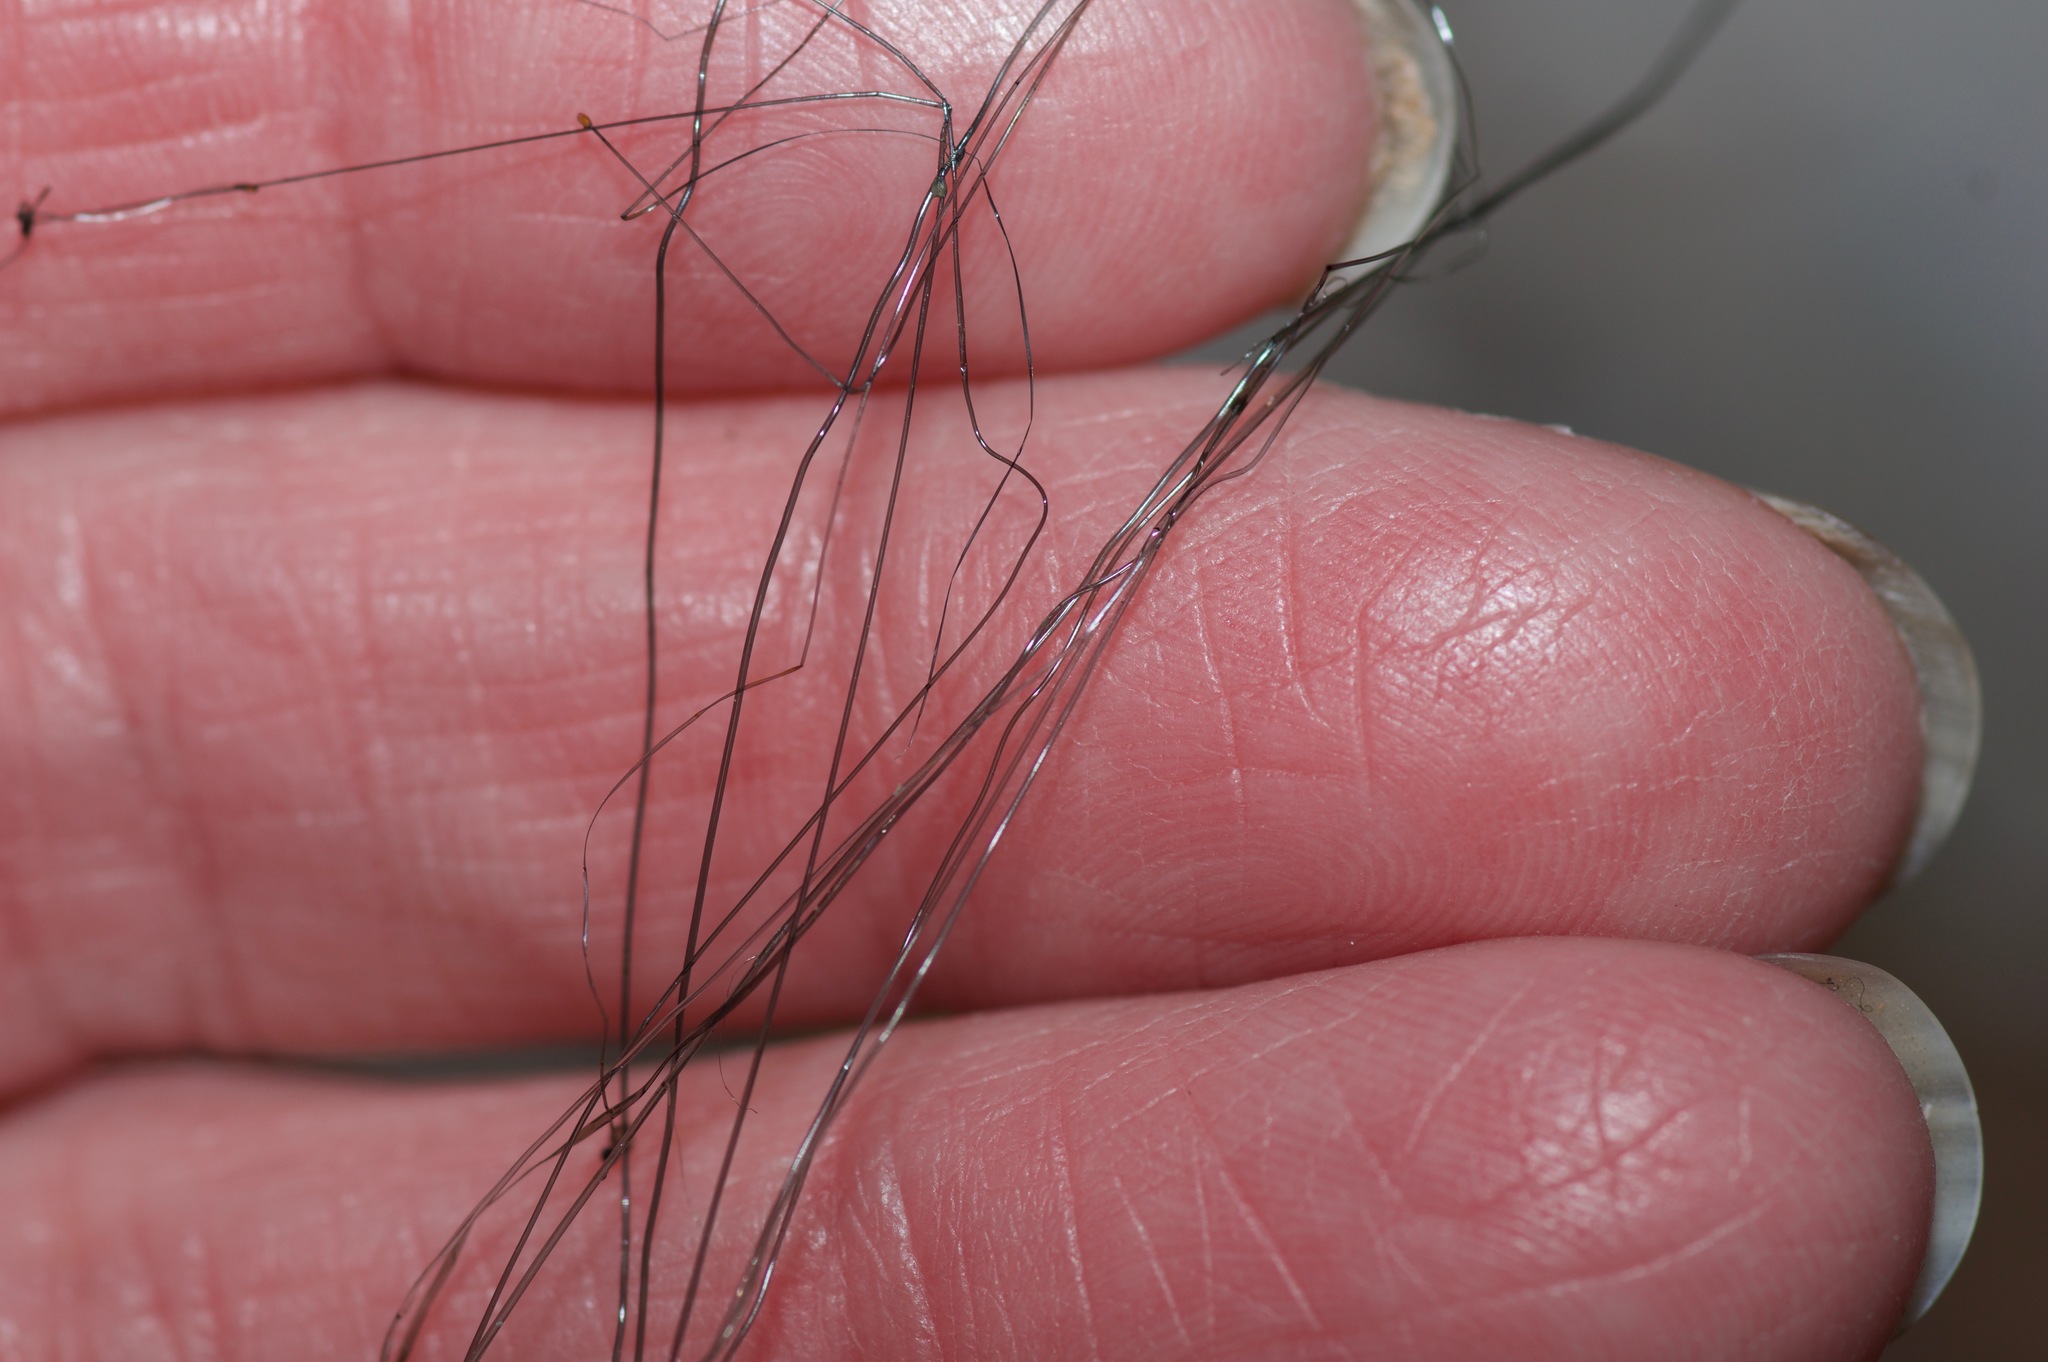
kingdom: Fungi
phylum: Mucoromycota
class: Mucoromycetes
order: Mucorales
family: Phycomycetaceae
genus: Phycomyces
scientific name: Phycomyces
